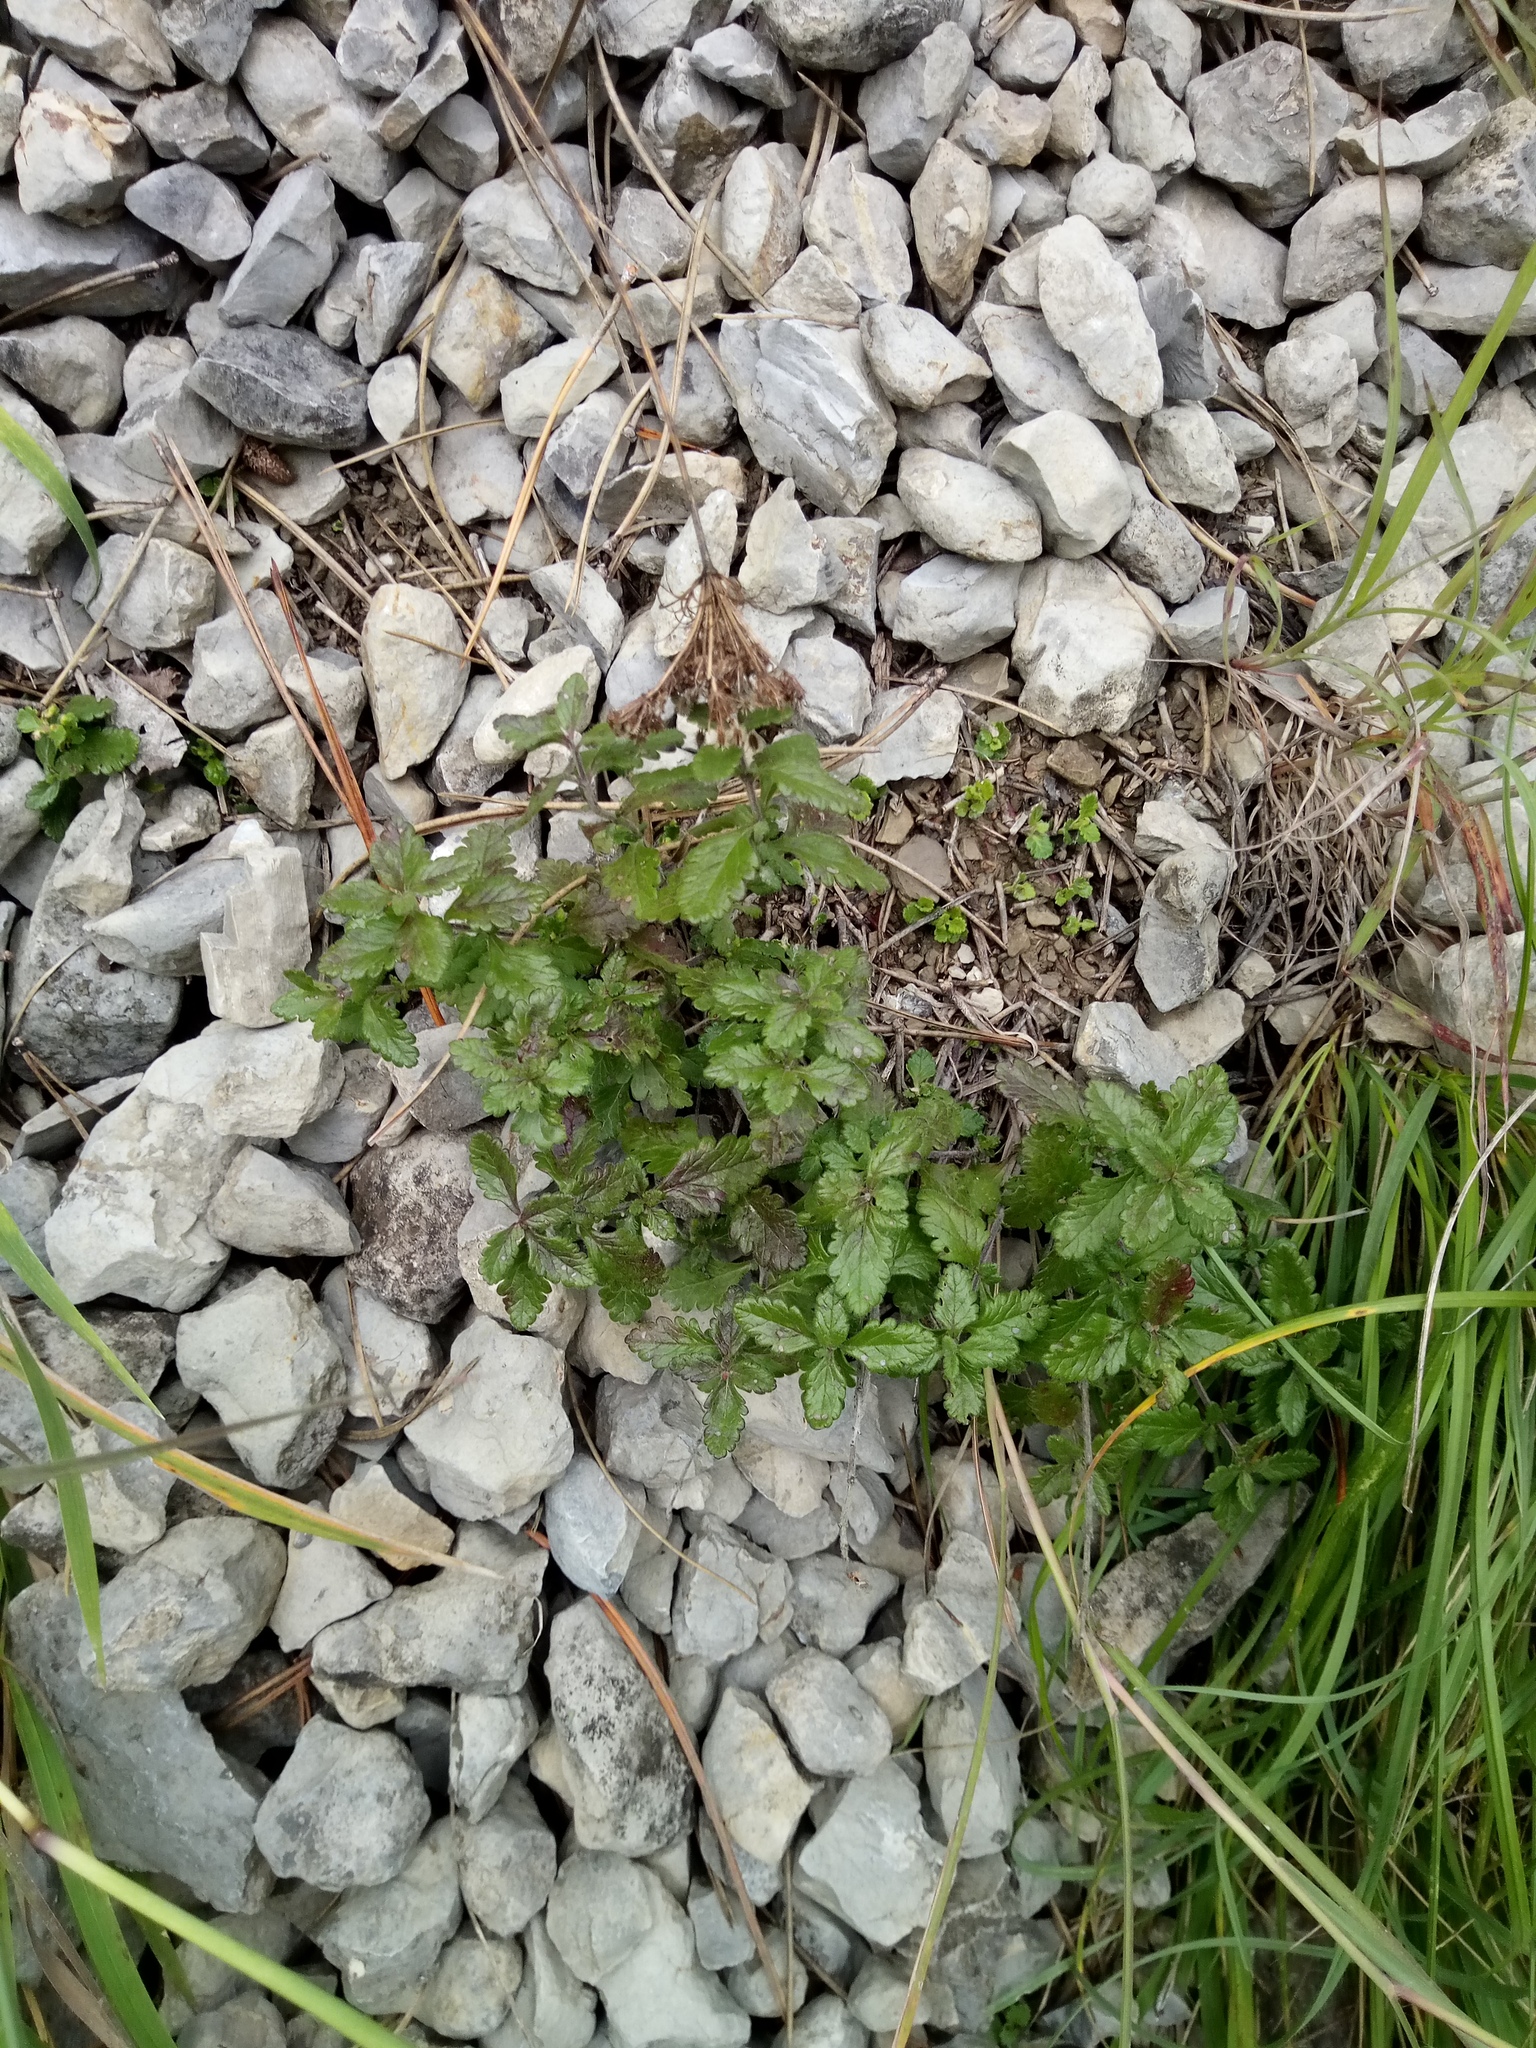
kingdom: Plantae
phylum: Tracheophyta
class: Magnoliopsida
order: Lamiales
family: Lamiaceae
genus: Teucrium
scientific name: Teucrium chamaedrys
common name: Wall germander
